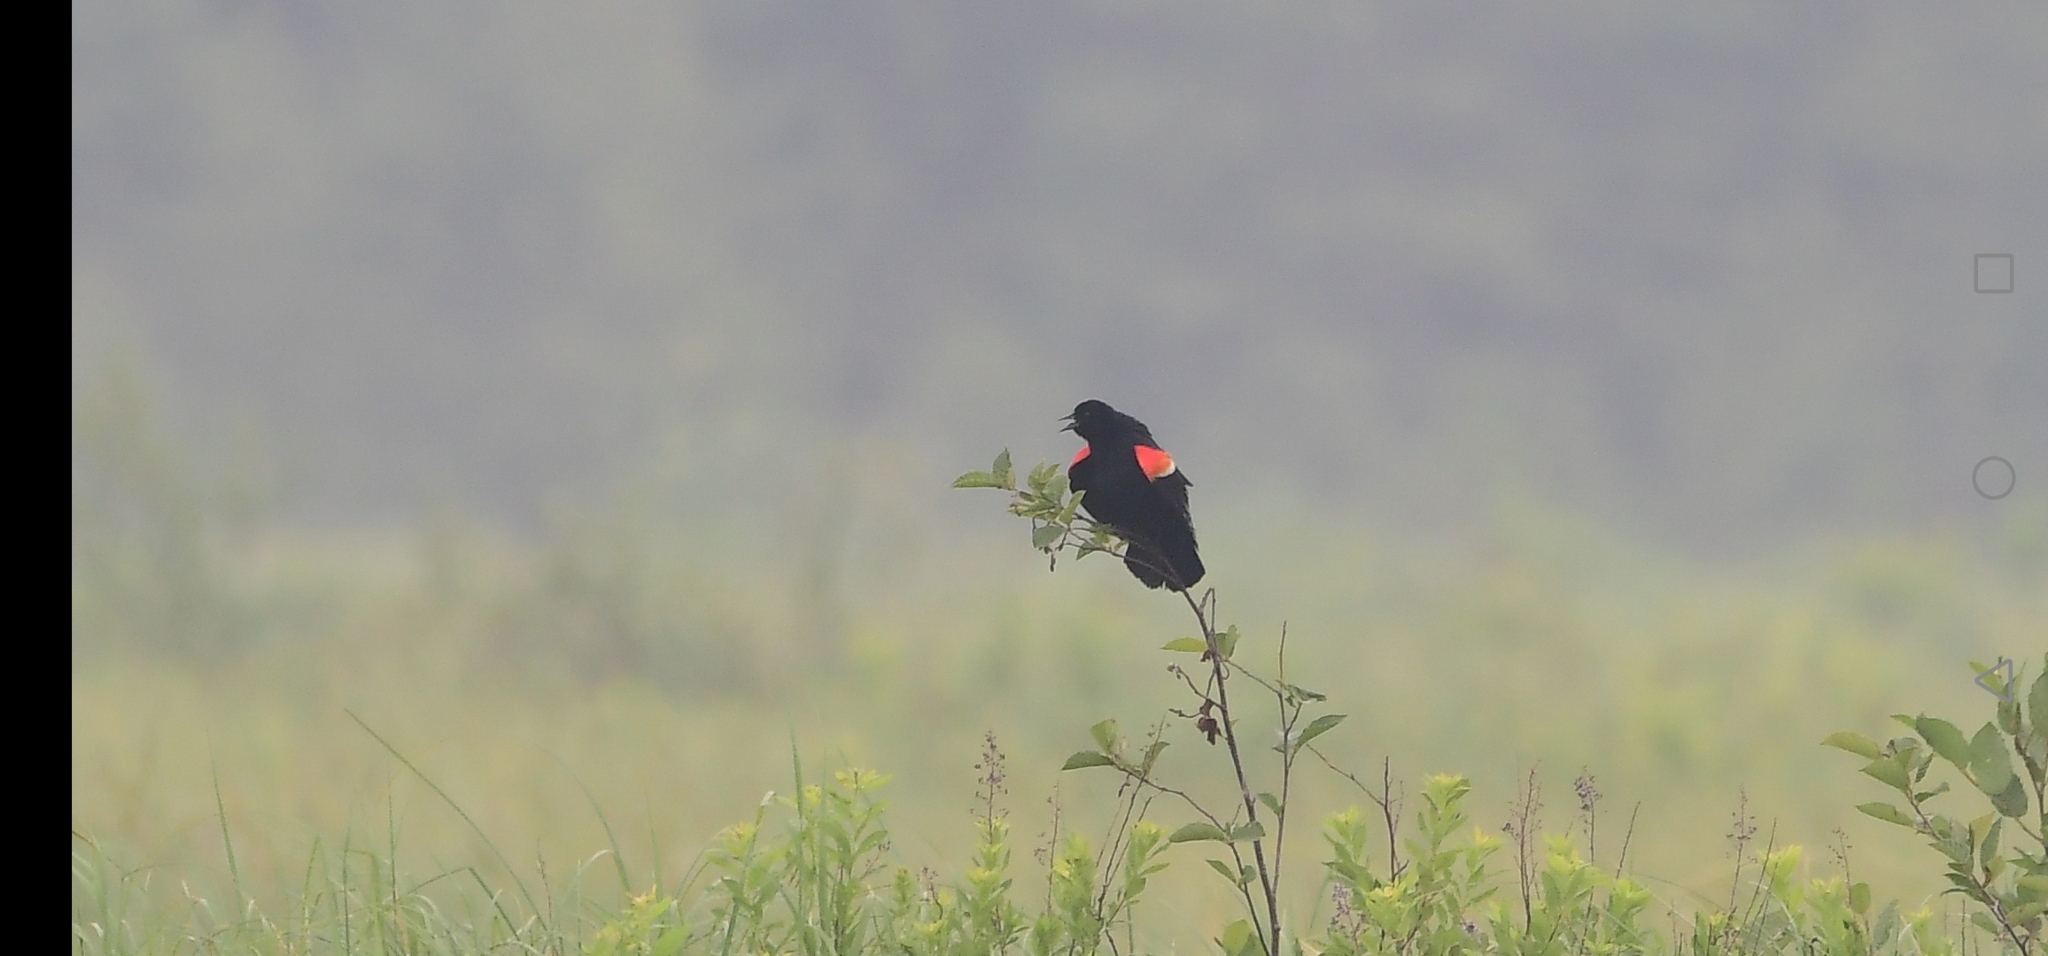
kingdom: Animalia
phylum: Chordata
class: Aves
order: Passeriformes
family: Icteridae
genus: Agelaius
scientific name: Agelaius phoeniceus
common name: Red-winged blackbird
